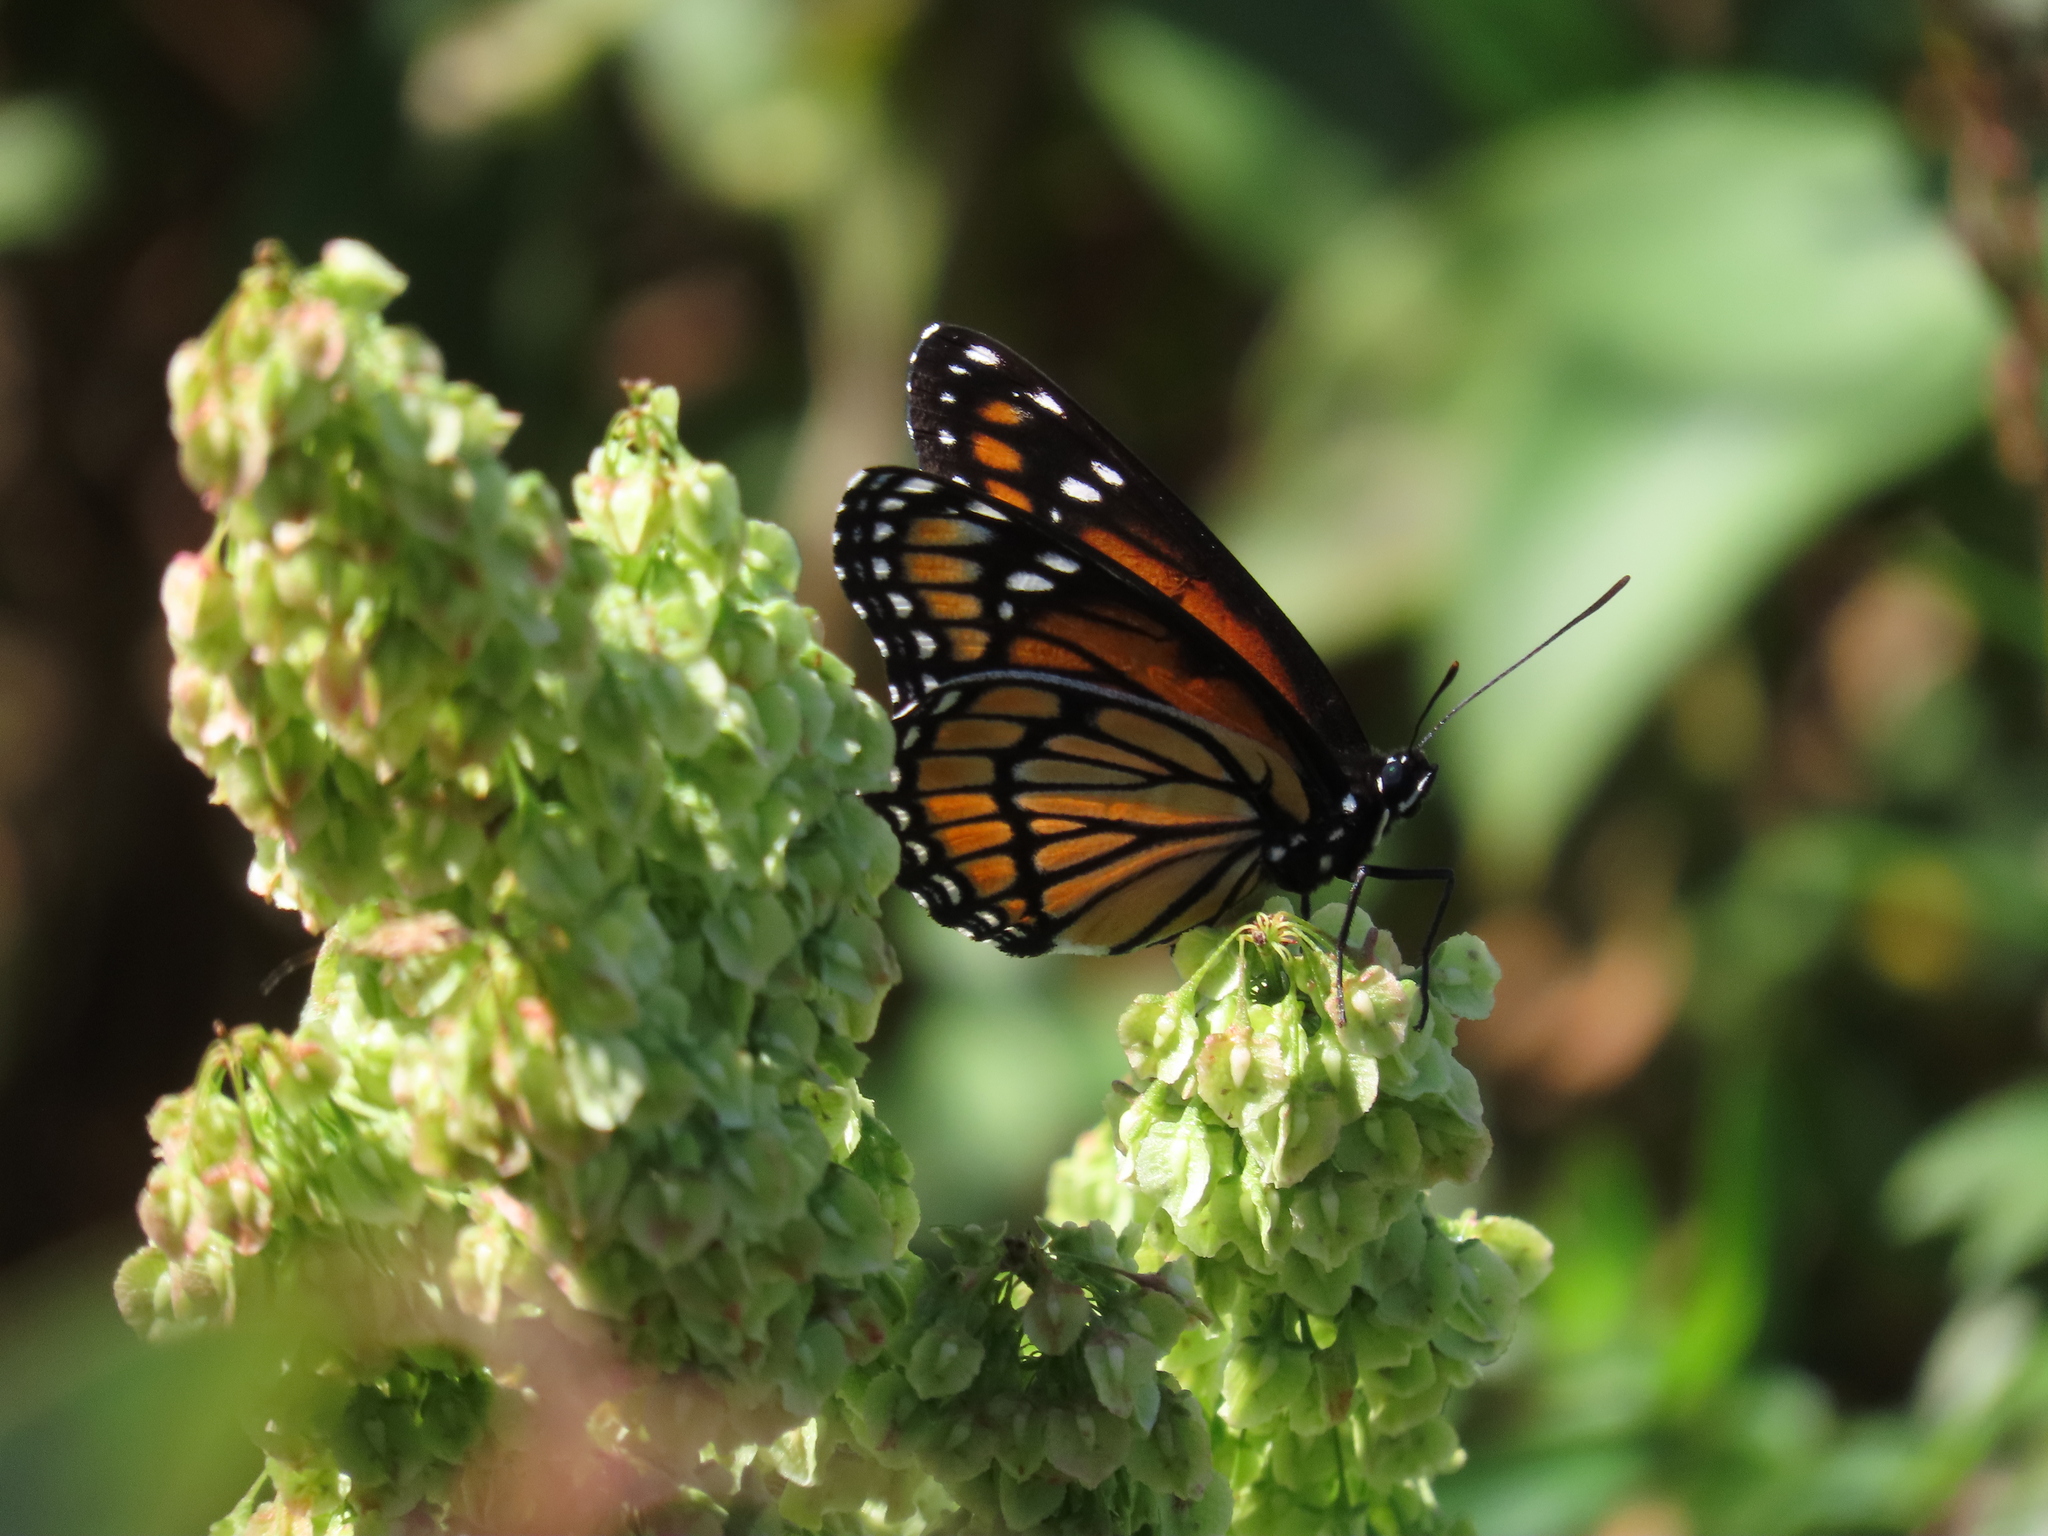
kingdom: Animalia
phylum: Arthropoda
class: Insecta
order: Lepidoptera
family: Nymphalidae
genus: Limenitis
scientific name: Limenitis archippus
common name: Viceroy
